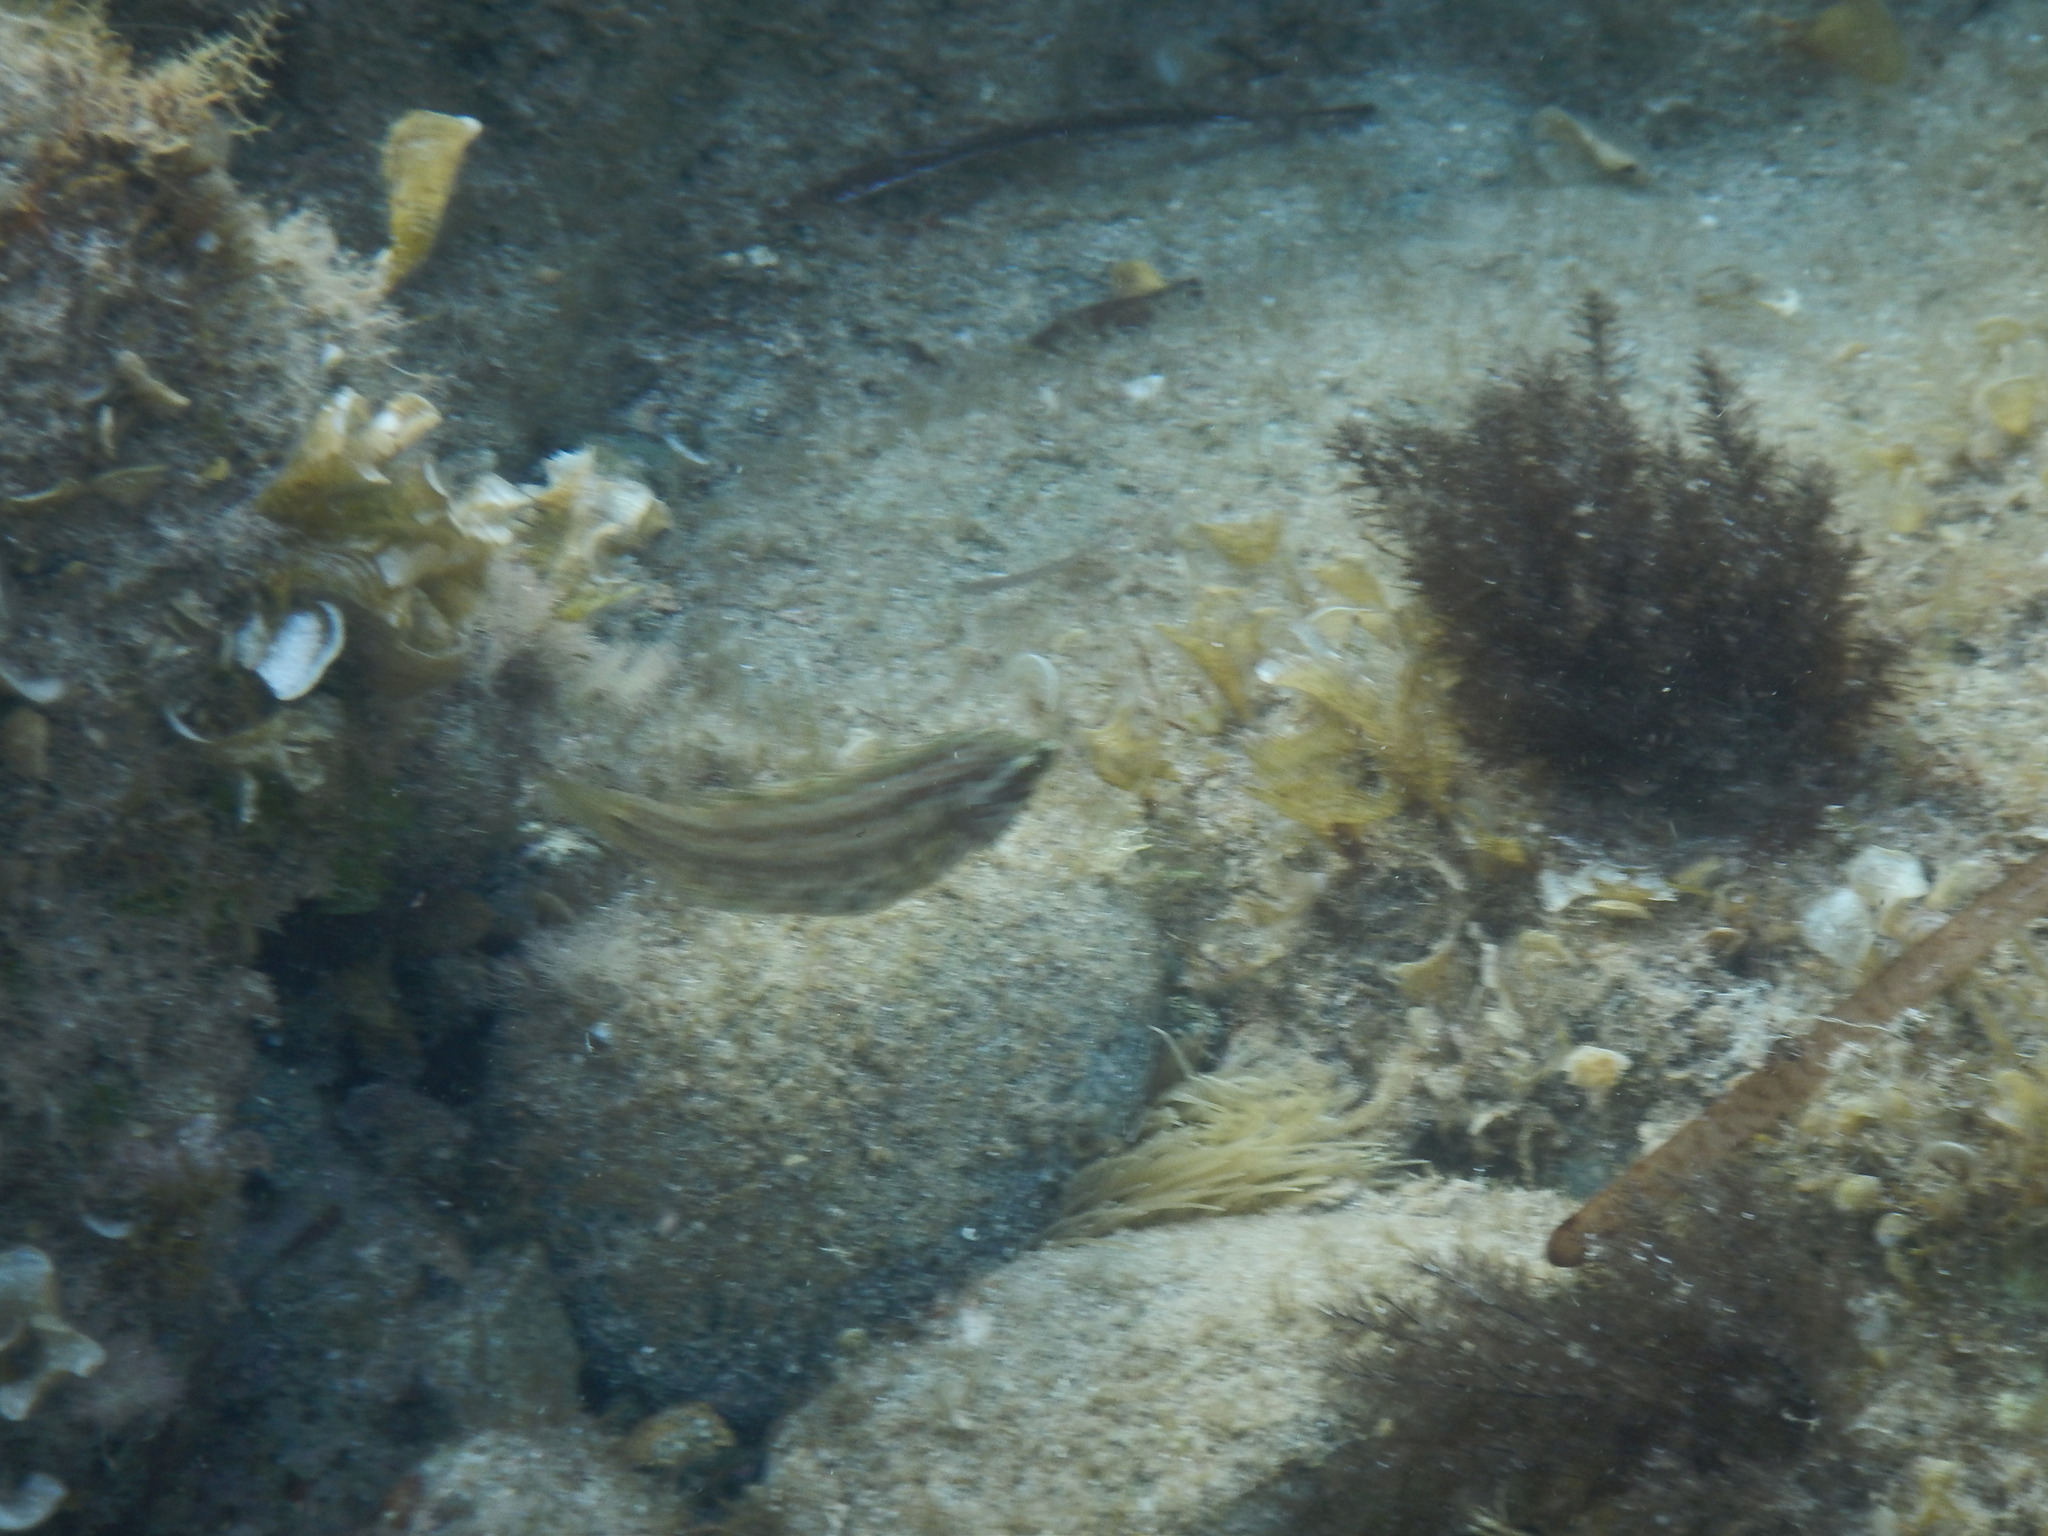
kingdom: Animalia
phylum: Chordata
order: Perciformes
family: Labridae
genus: Symphodus
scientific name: Symphodus roissali
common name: Five-spotted wrasse
